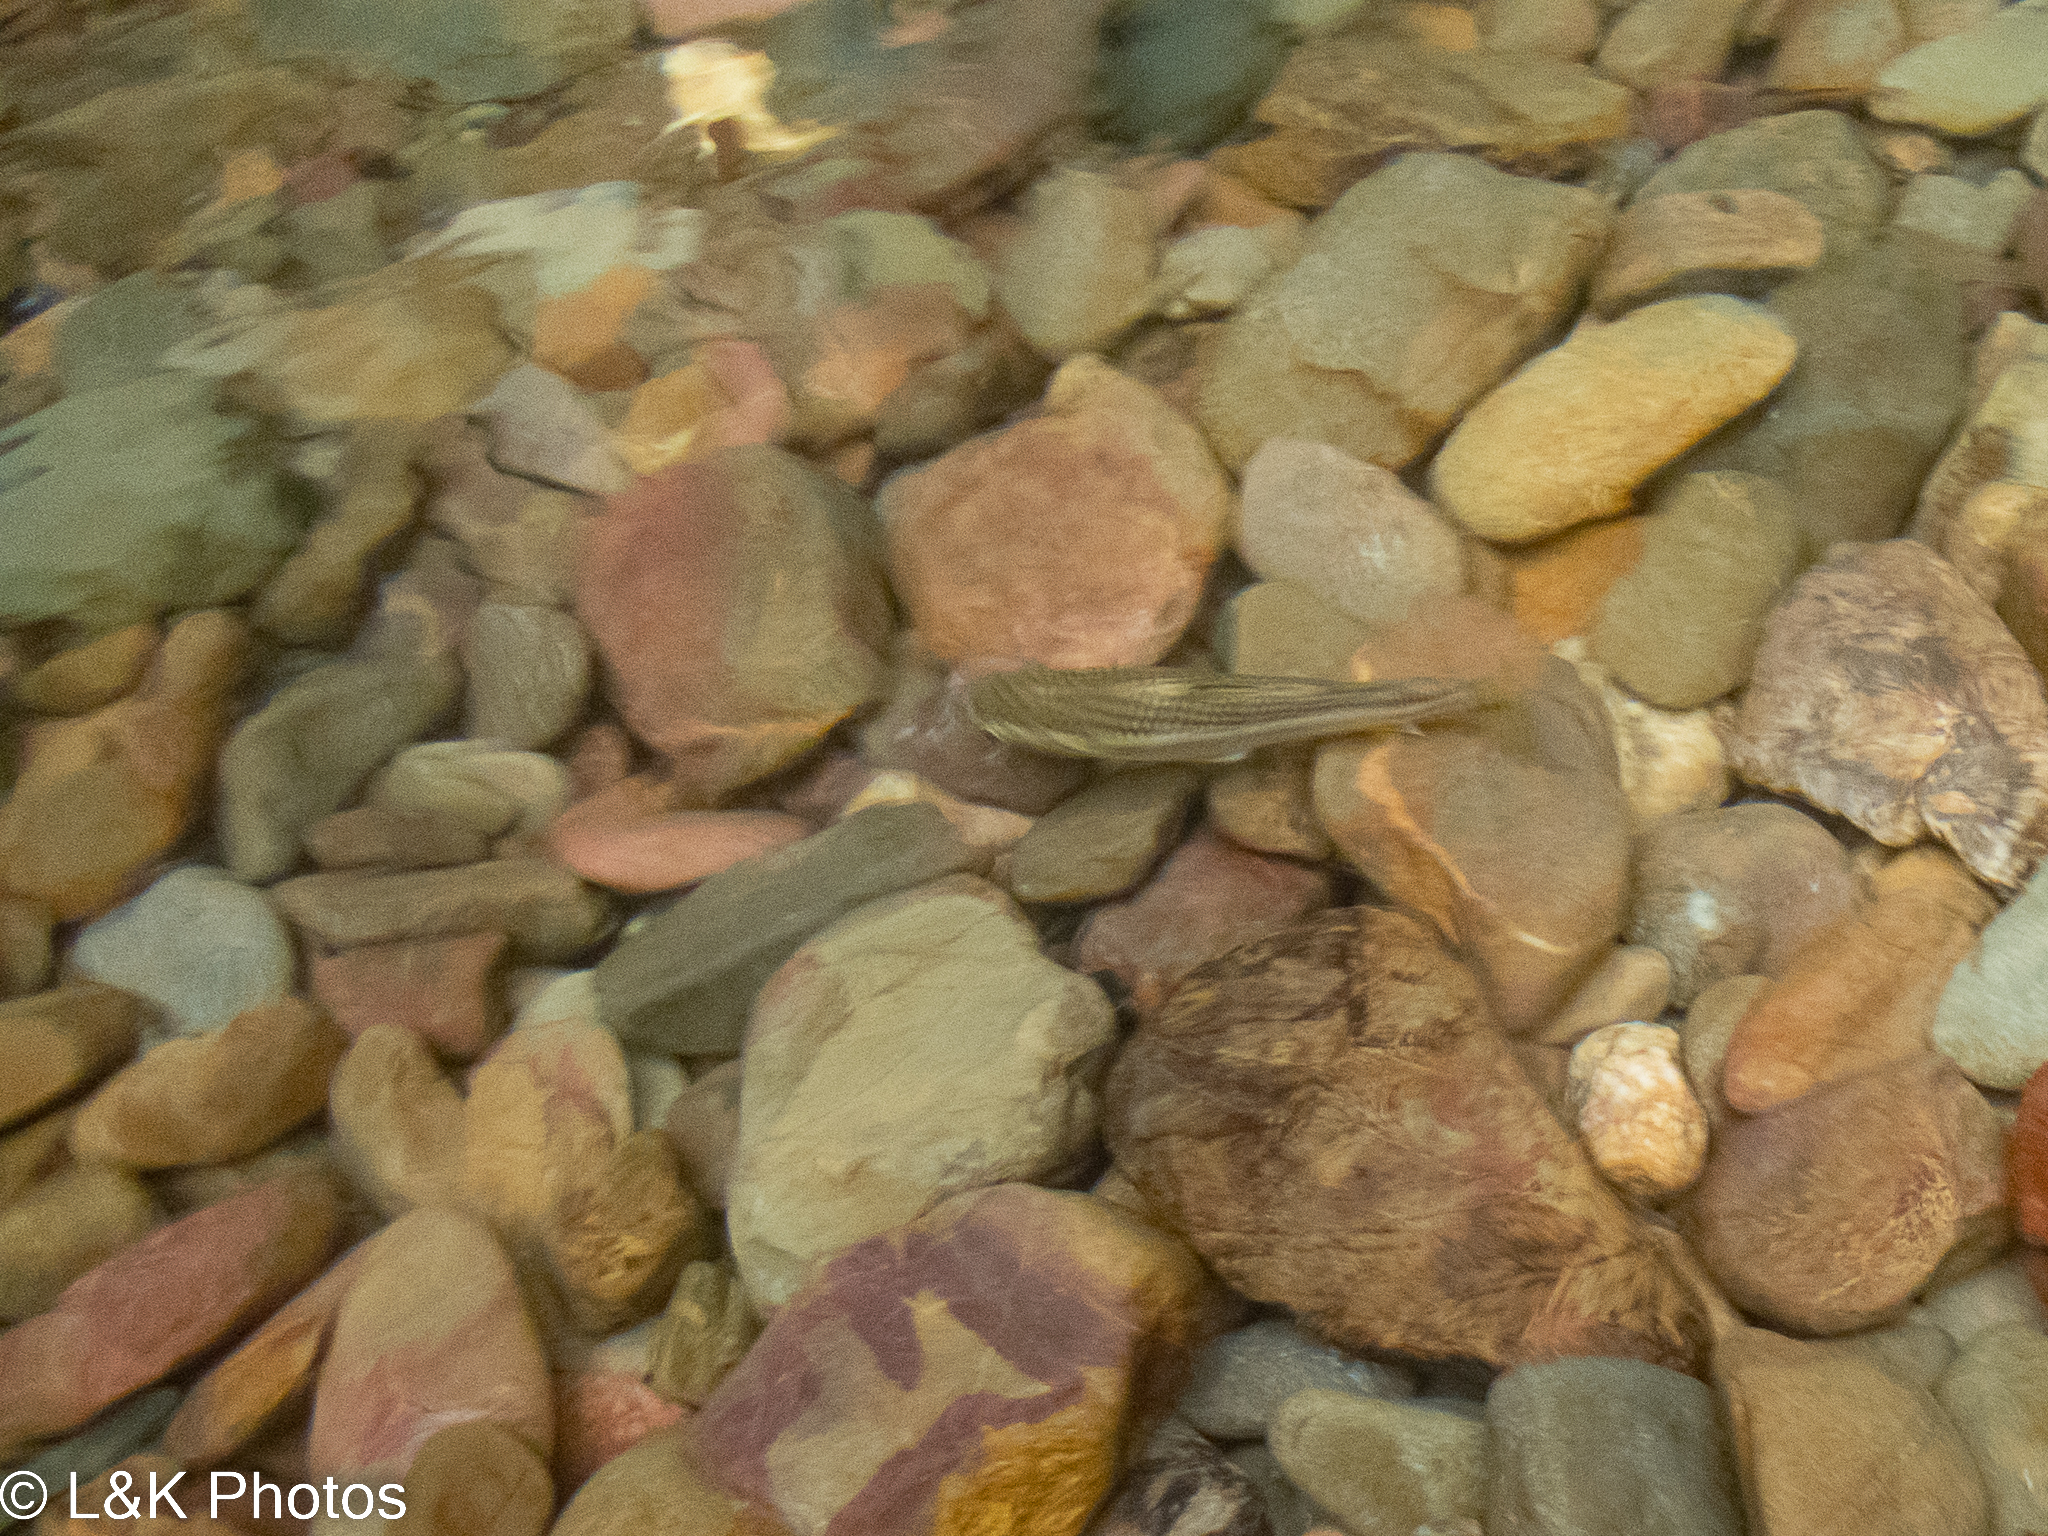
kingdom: Animalia
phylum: Chordata
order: Mugiliformes
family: Mugilidae
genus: Dajaus
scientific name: Dajaus monticola
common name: Mountain mullet
